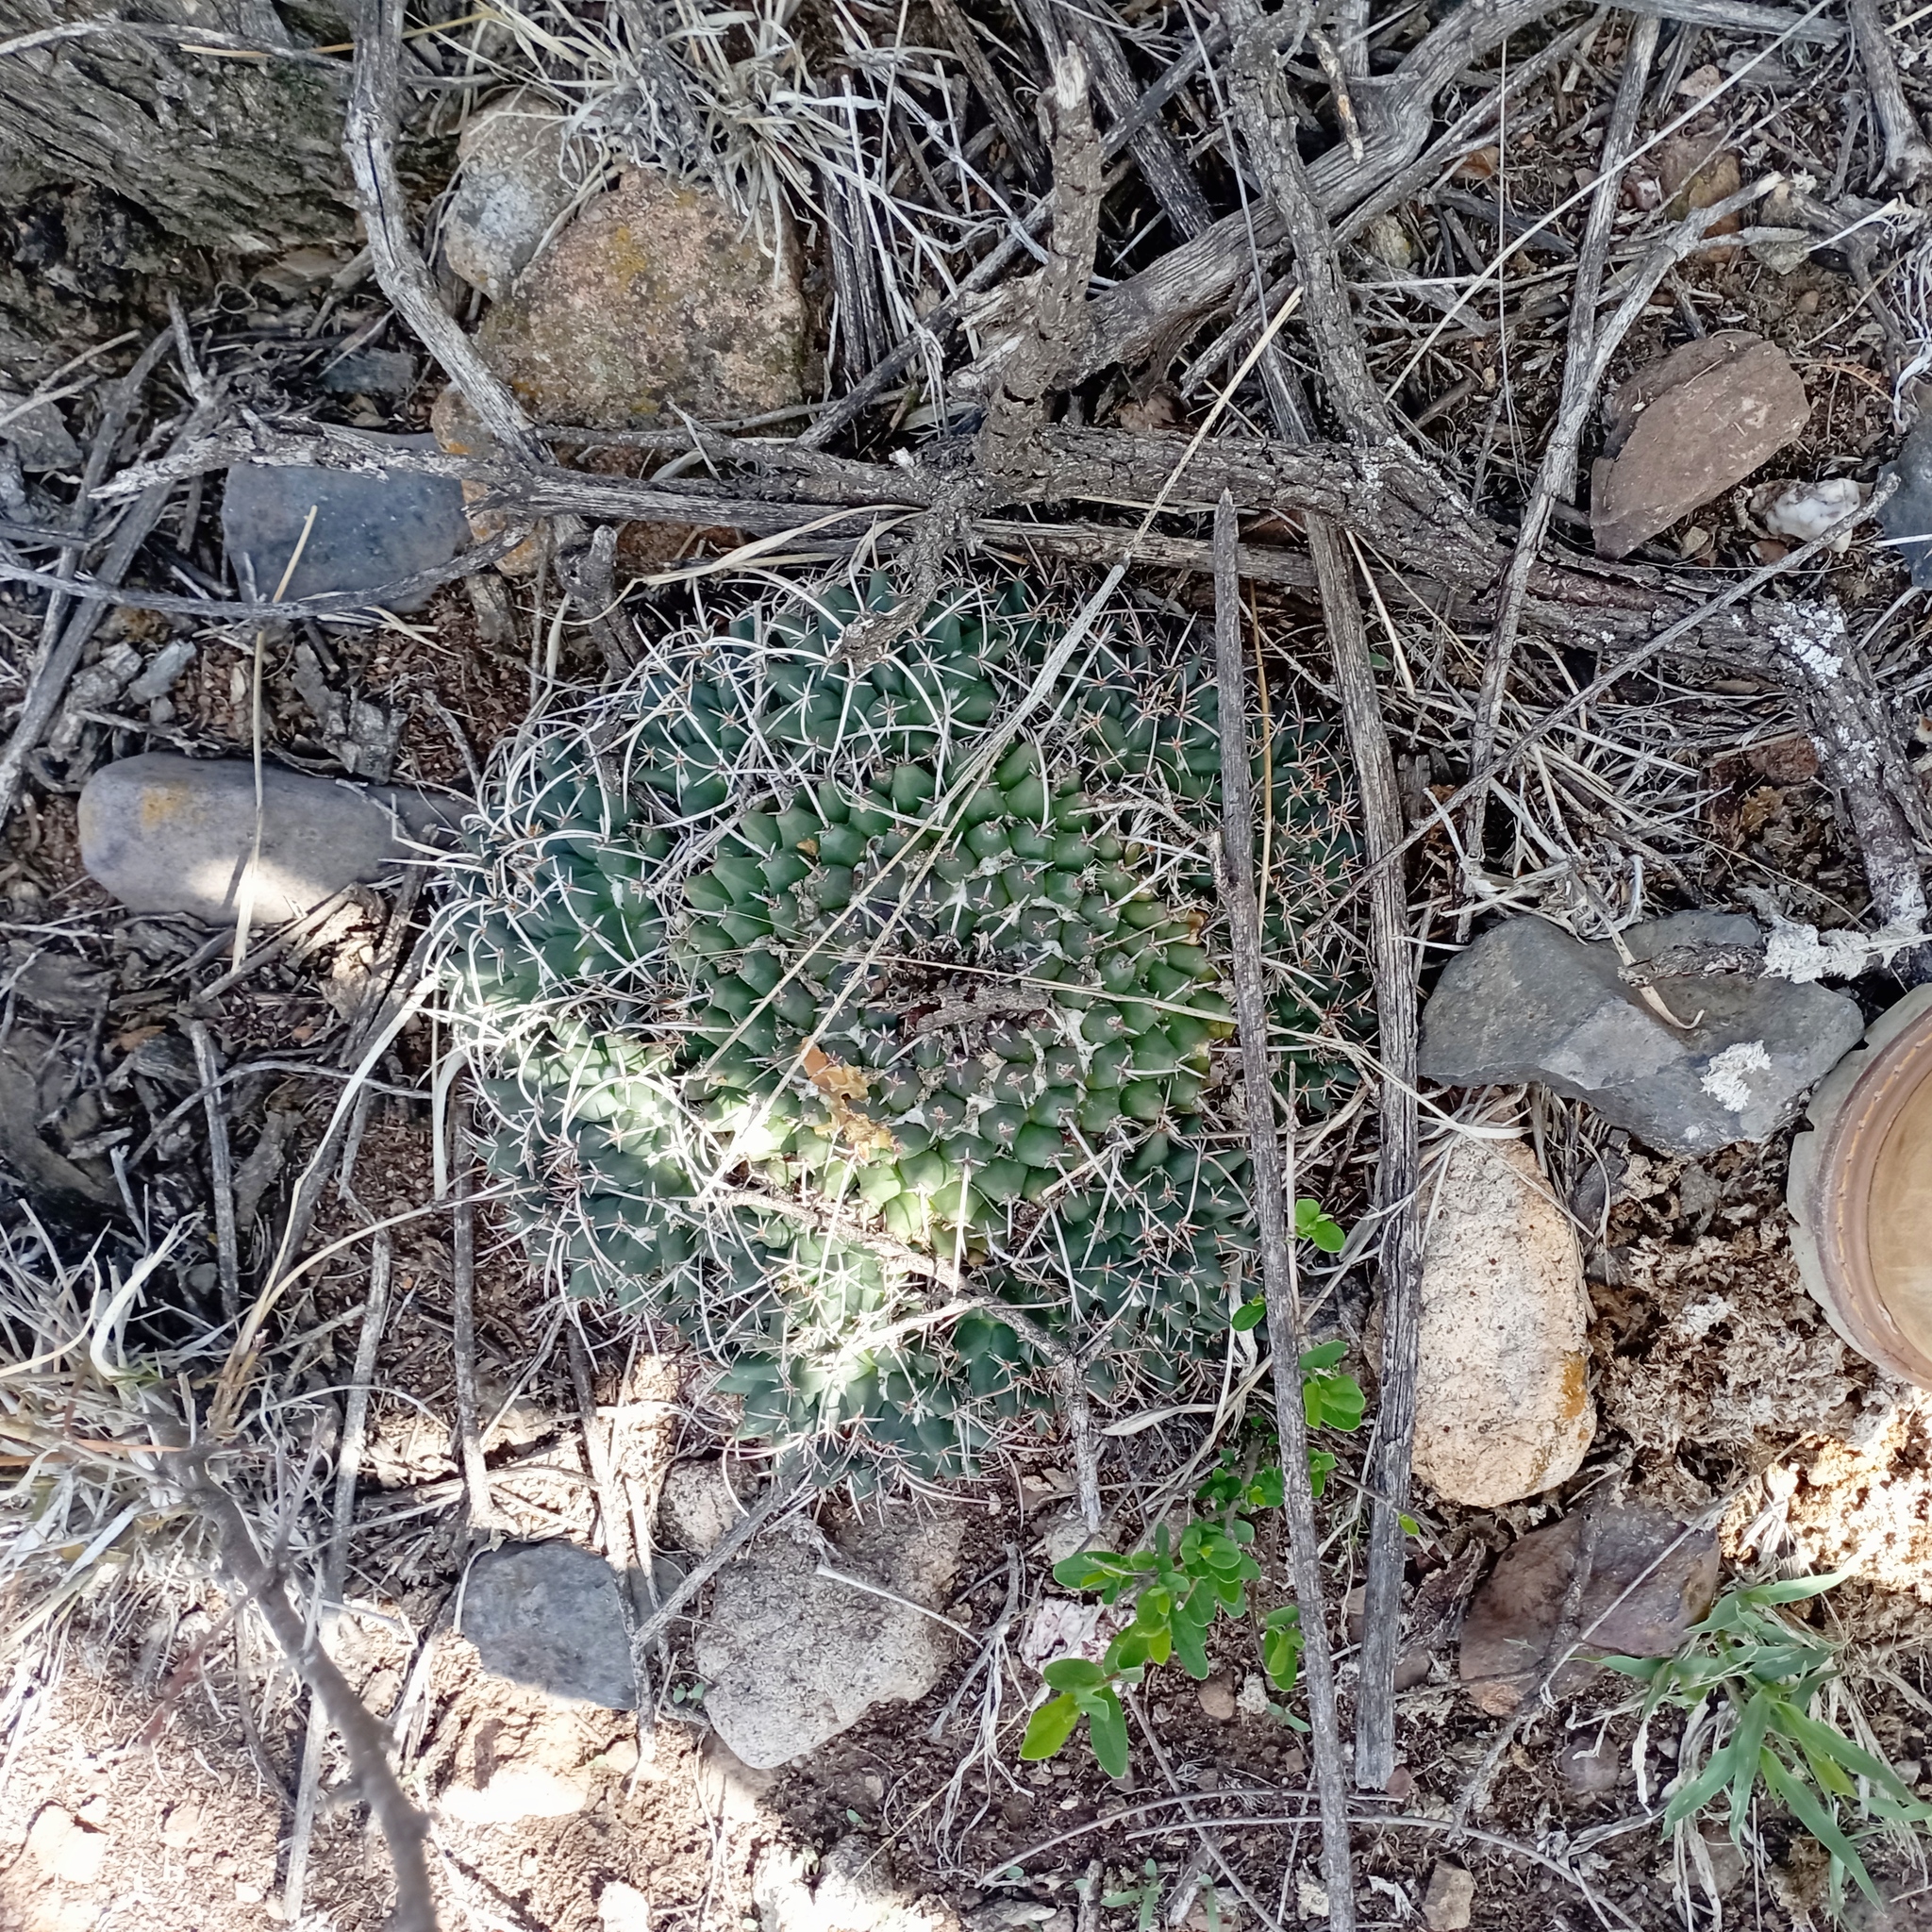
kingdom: Plantae
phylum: Tracheophyta
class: Magnoliopsida
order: Caryophyllales
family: Cactaceae
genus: Mammillaria
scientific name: Mammillaria magnimamma
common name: Mexican pincushion
